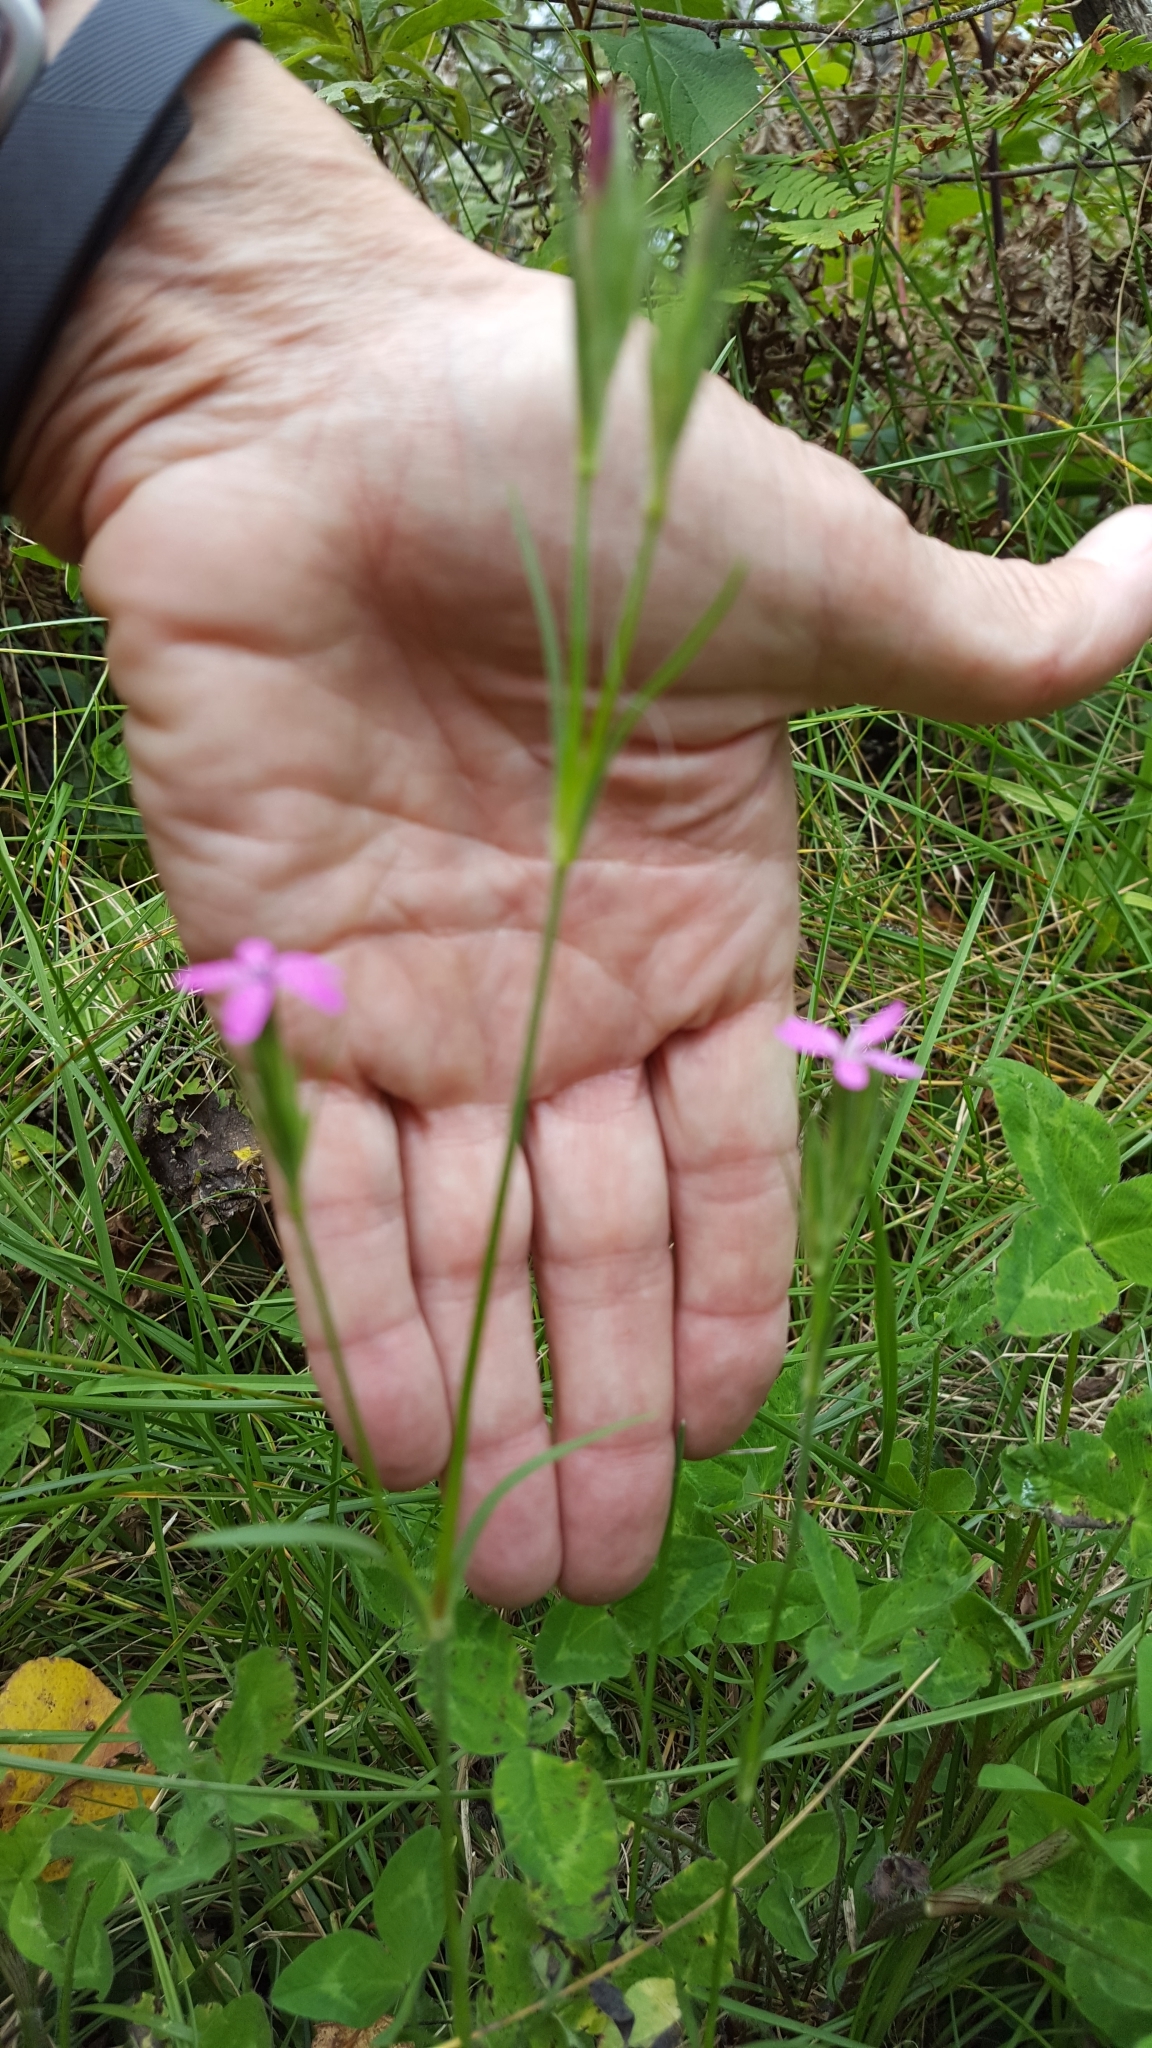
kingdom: Plantae
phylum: Tracheophyta
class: Magnoliopsida
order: Caryophyllales
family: Caryophyllaceae
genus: Dianthus
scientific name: Dianthus armeria
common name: Deptford pink
